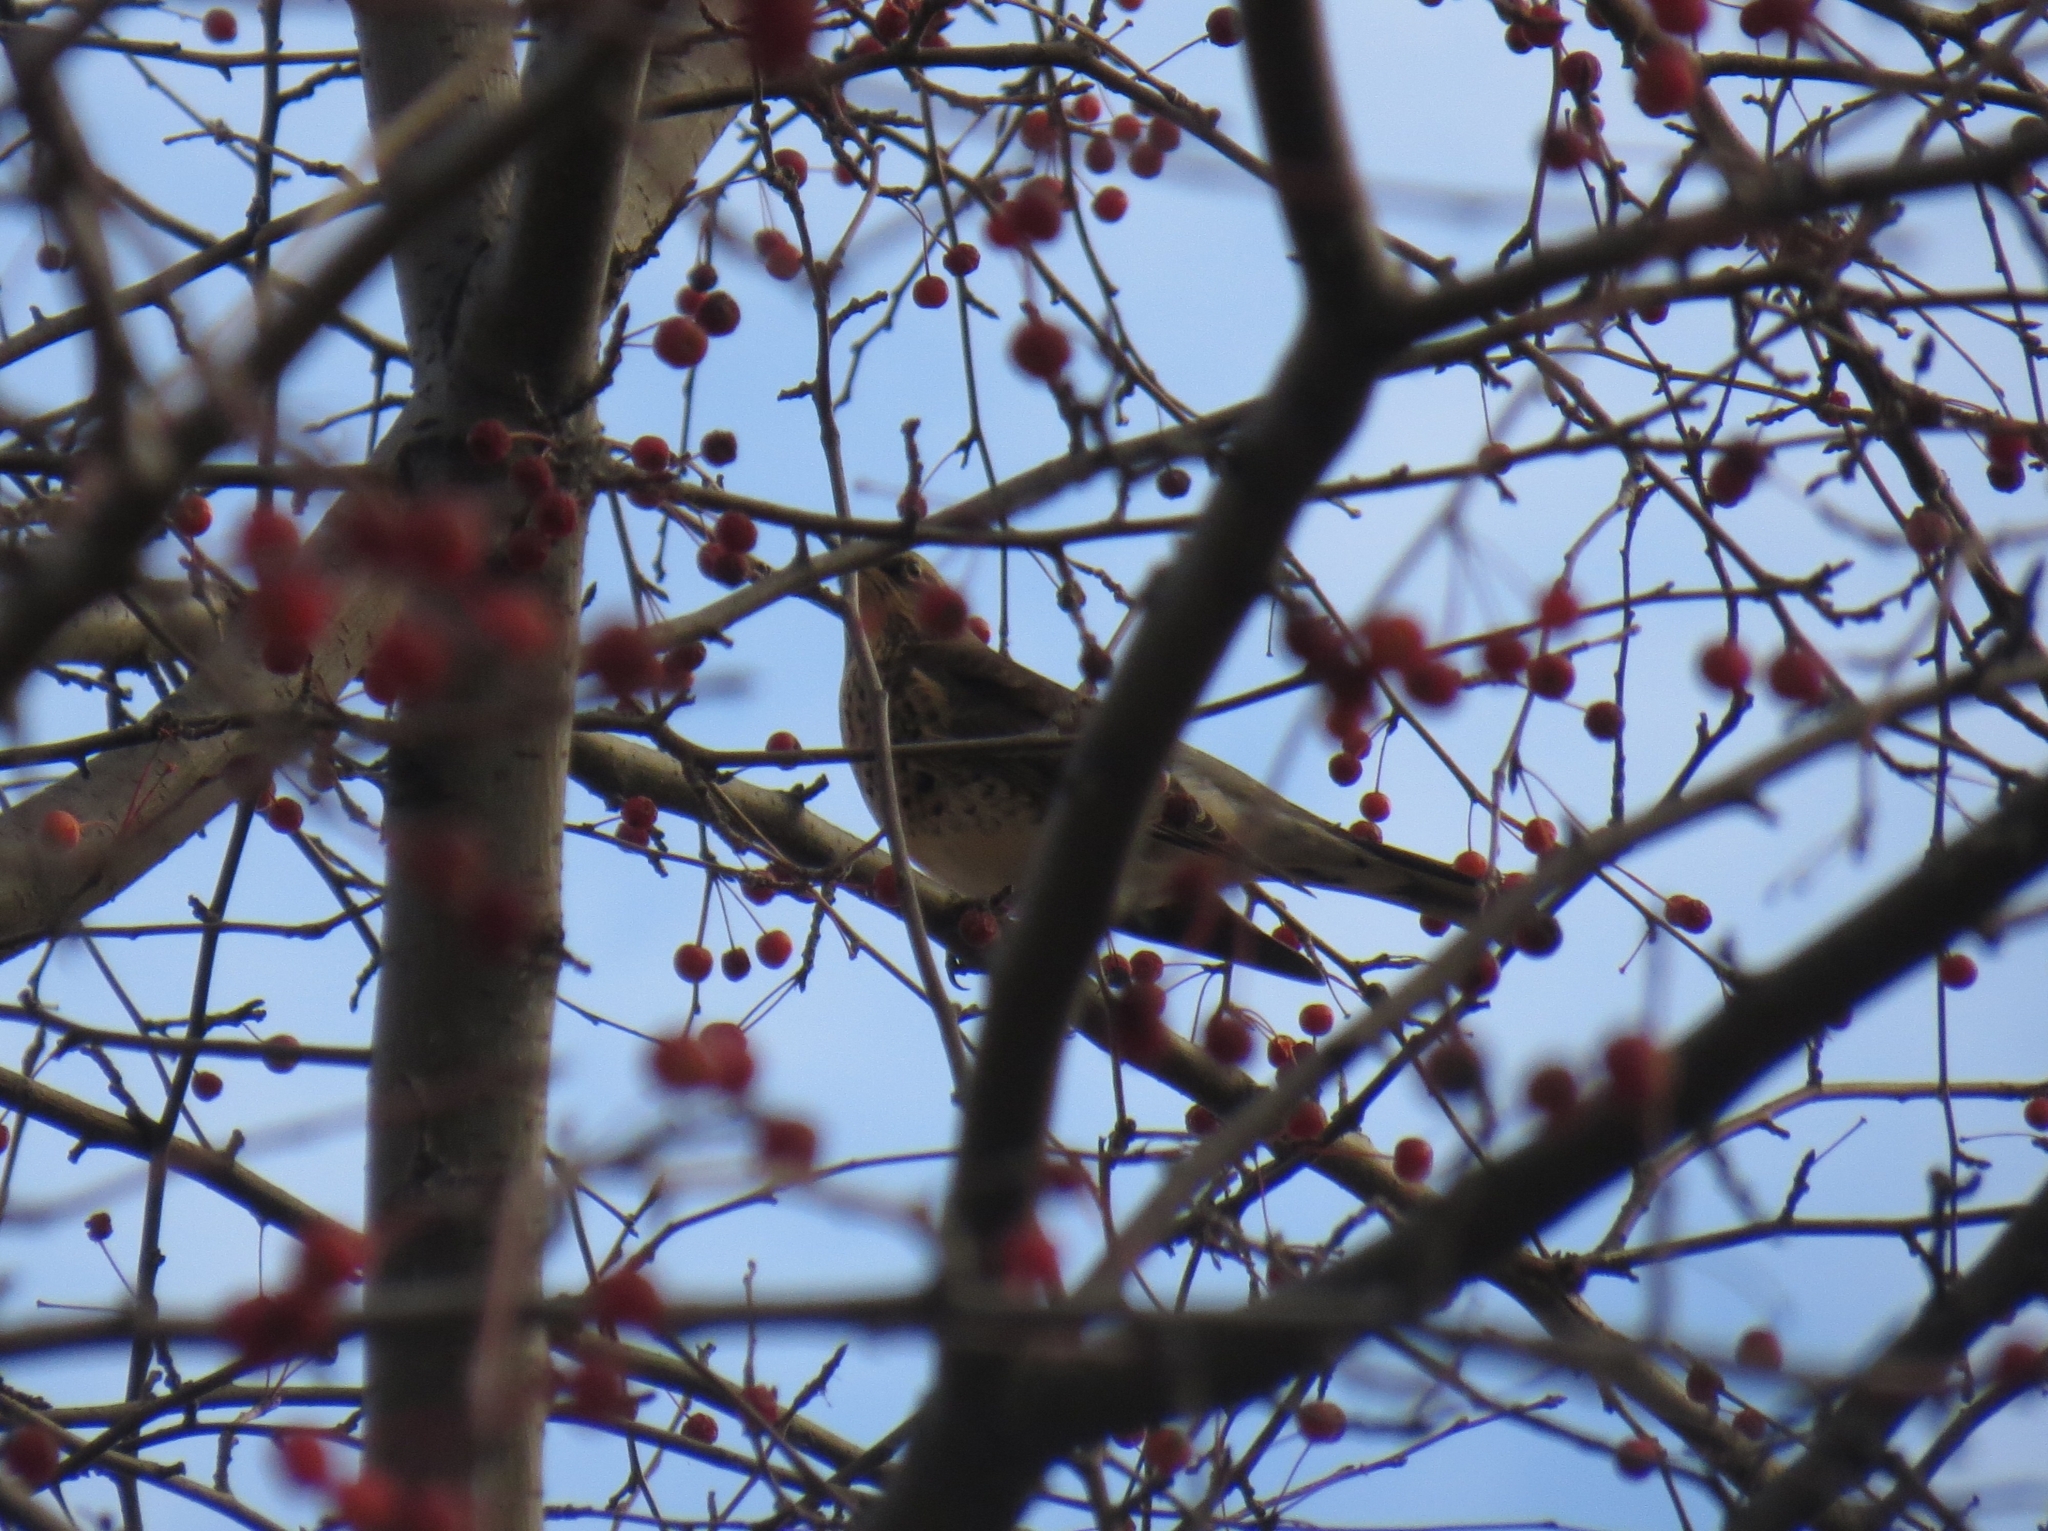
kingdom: Animalia
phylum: Chordata
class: Aves
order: Passeriformes
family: Turdidae
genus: Turdus
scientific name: Turdus pilaris
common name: Fieldfare
